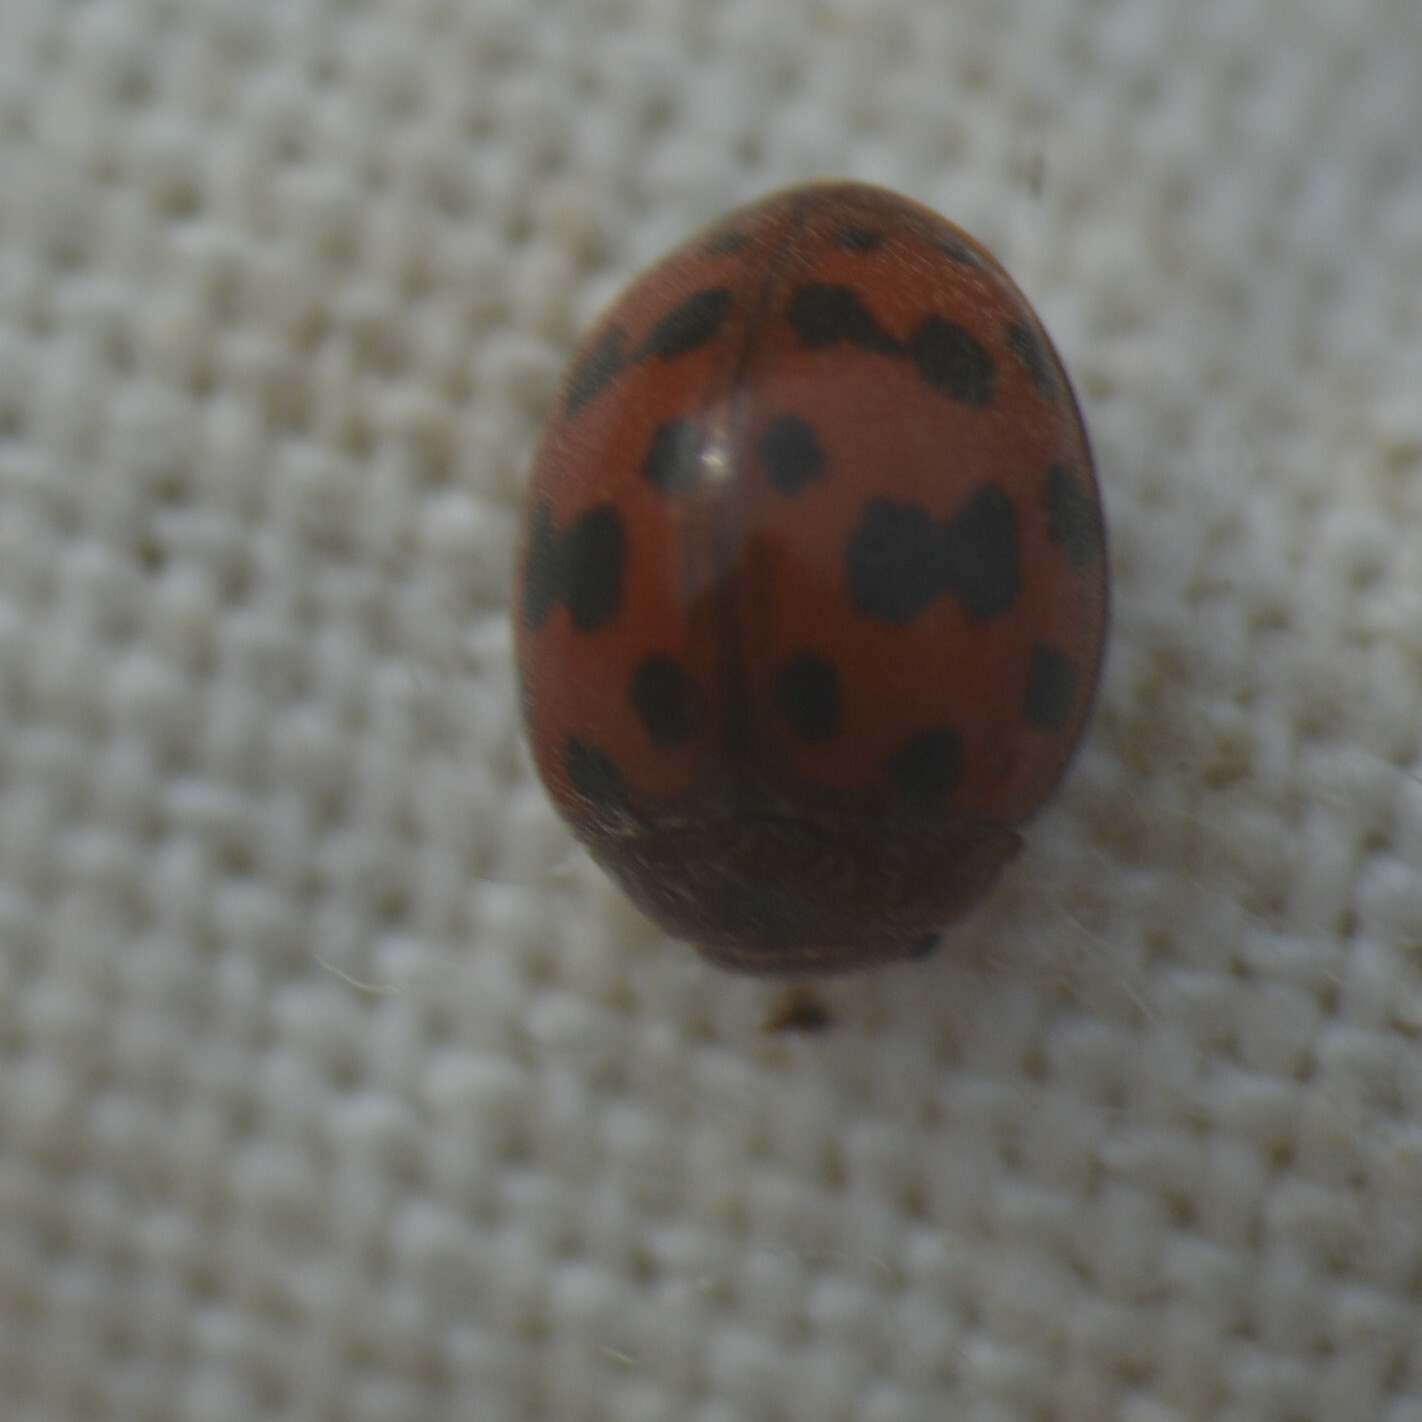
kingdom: Animalia
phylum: Arthropoda
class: Insecta
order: Coleoptera
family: Coccinellidae
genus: Subcoccinella
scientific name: Subcoccinella vigintiquatuorpunctata
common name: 24-spot ladybird
